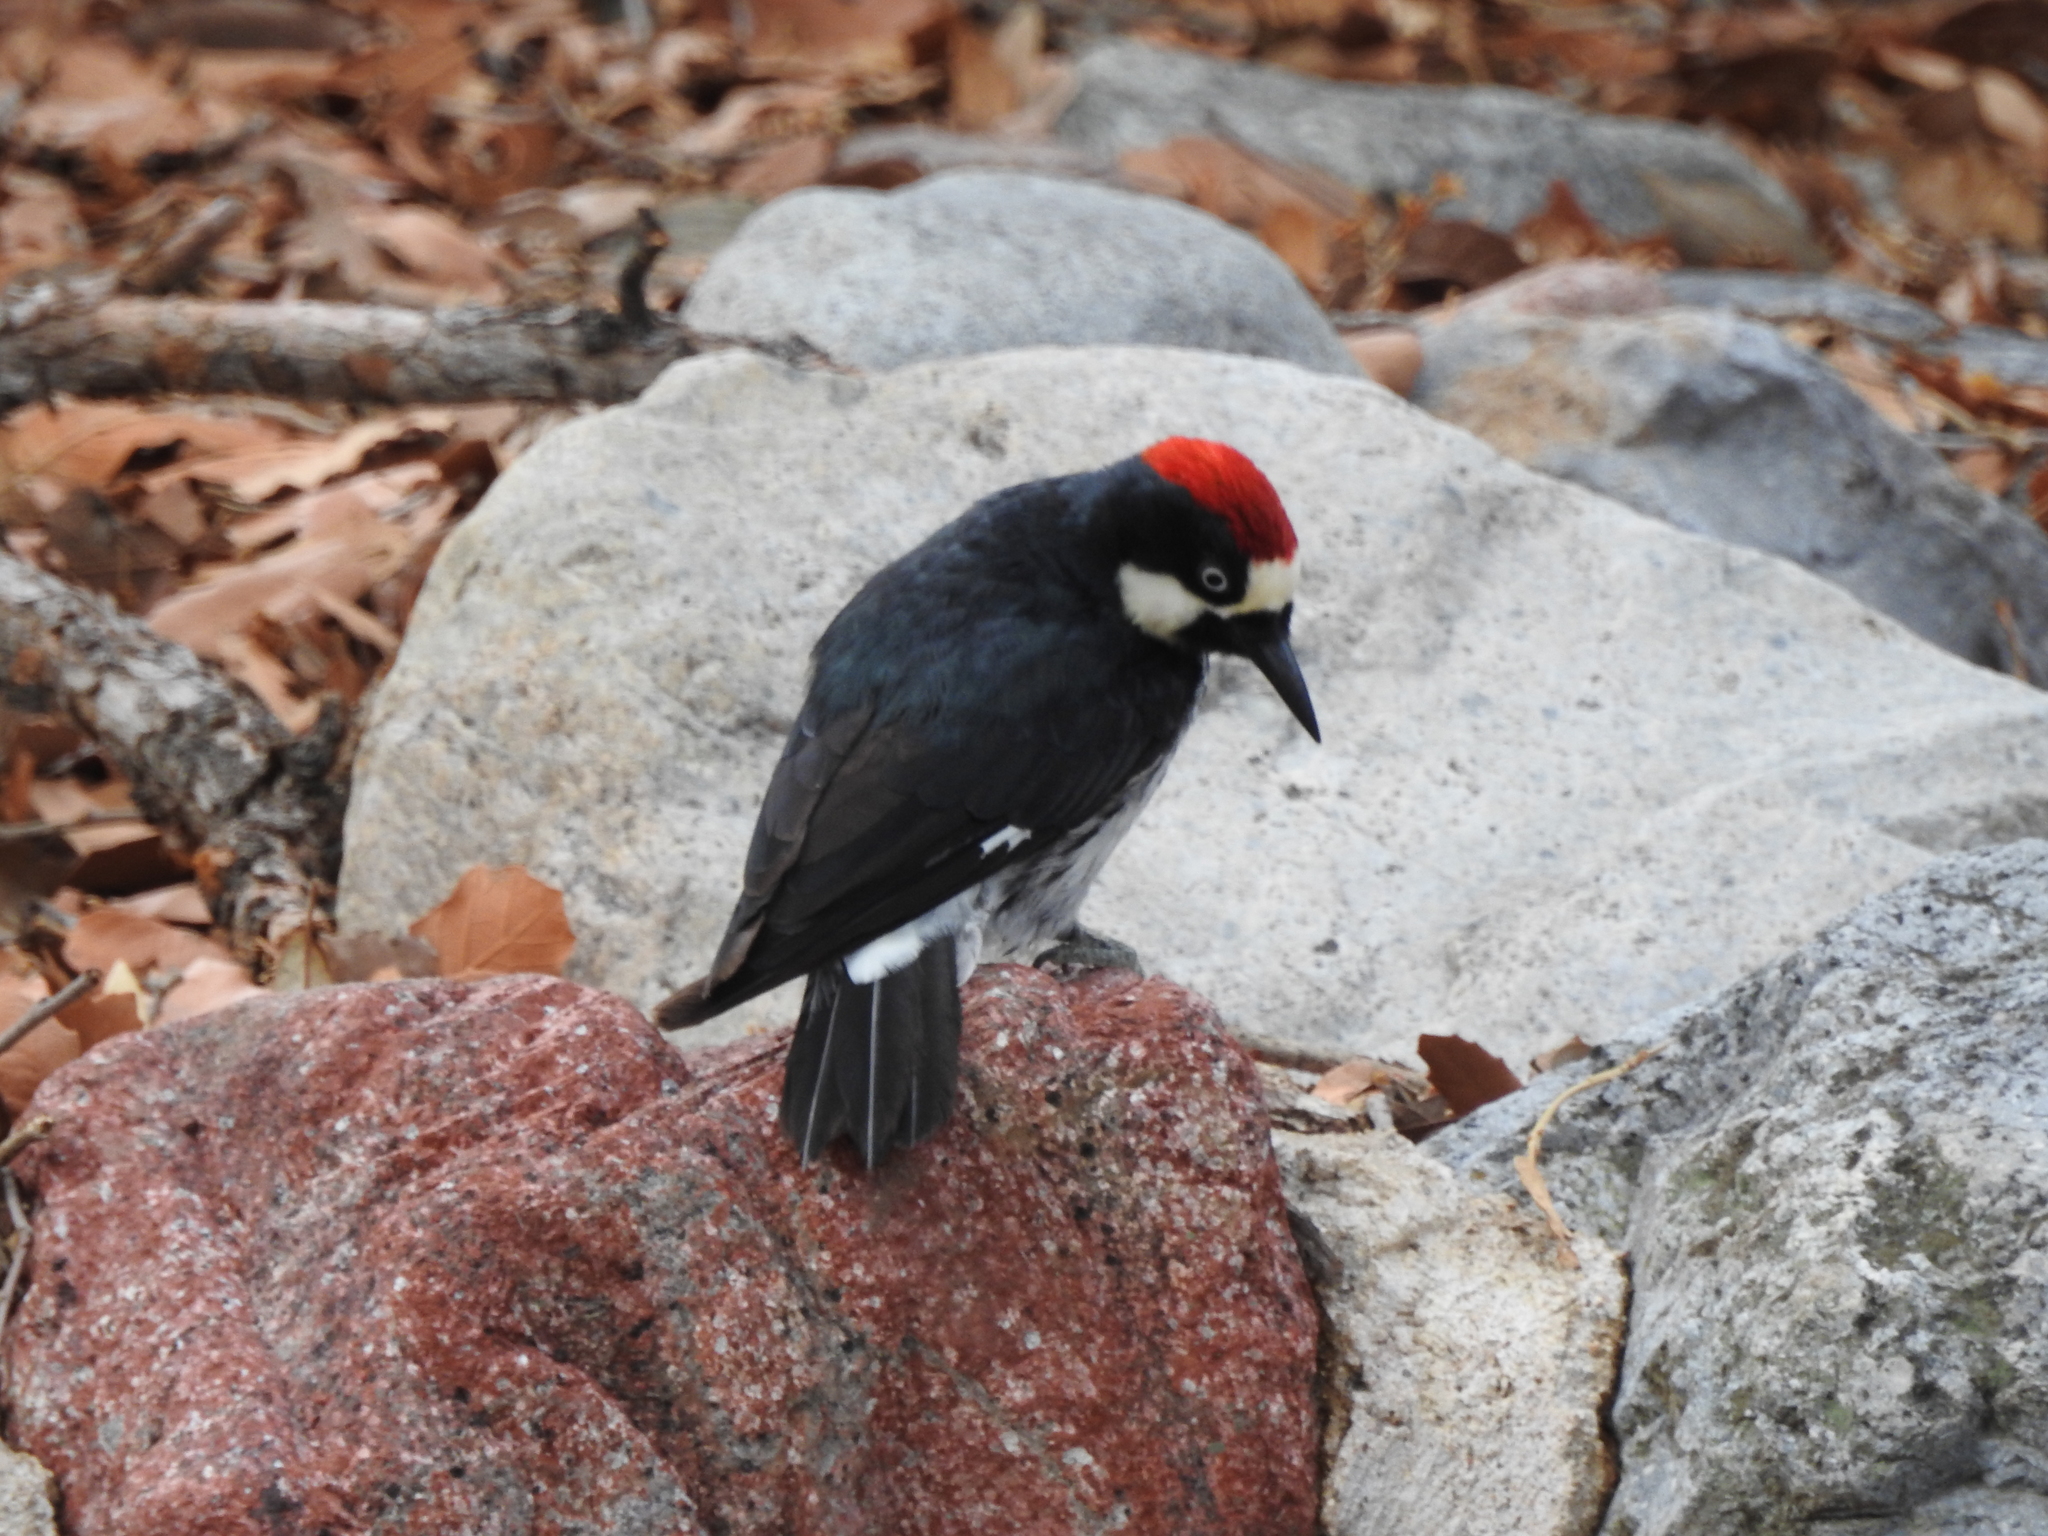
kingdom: Animalia
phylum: Chordata
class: Aves
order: Piciformes
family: Picidae
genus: Melanerpes
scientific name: Melanerpes formicivorus
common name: Acorn woodpecker
